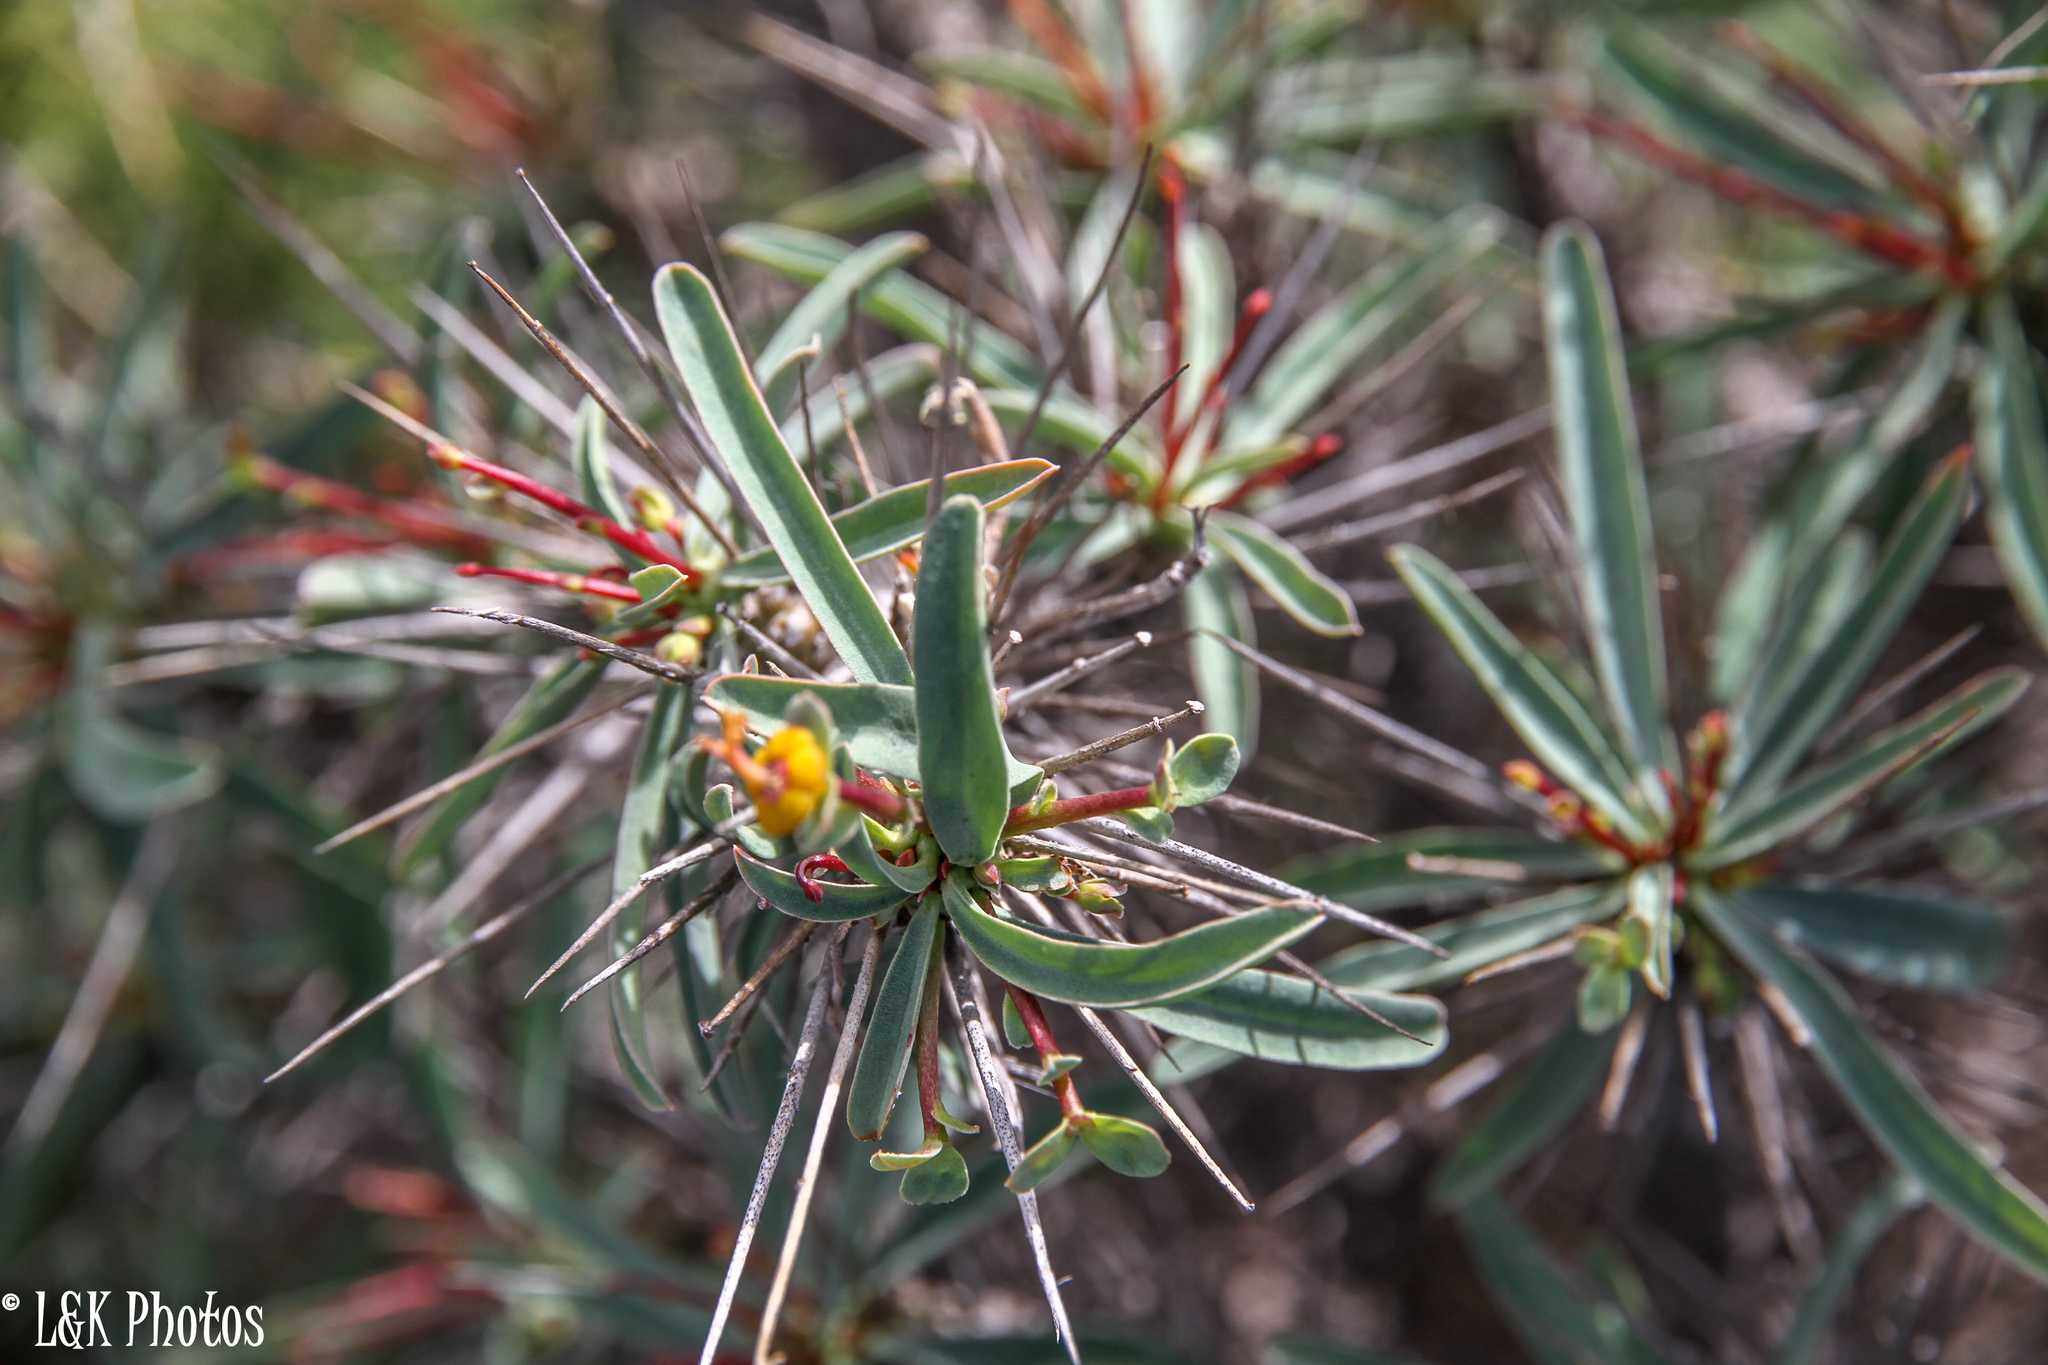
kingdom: Plantae
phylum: Tracheophyta
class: Magnoliopsida
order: Malpighiales
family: Euphorbiaceae
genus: Euphorbia
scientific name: Euphorbia loricata
